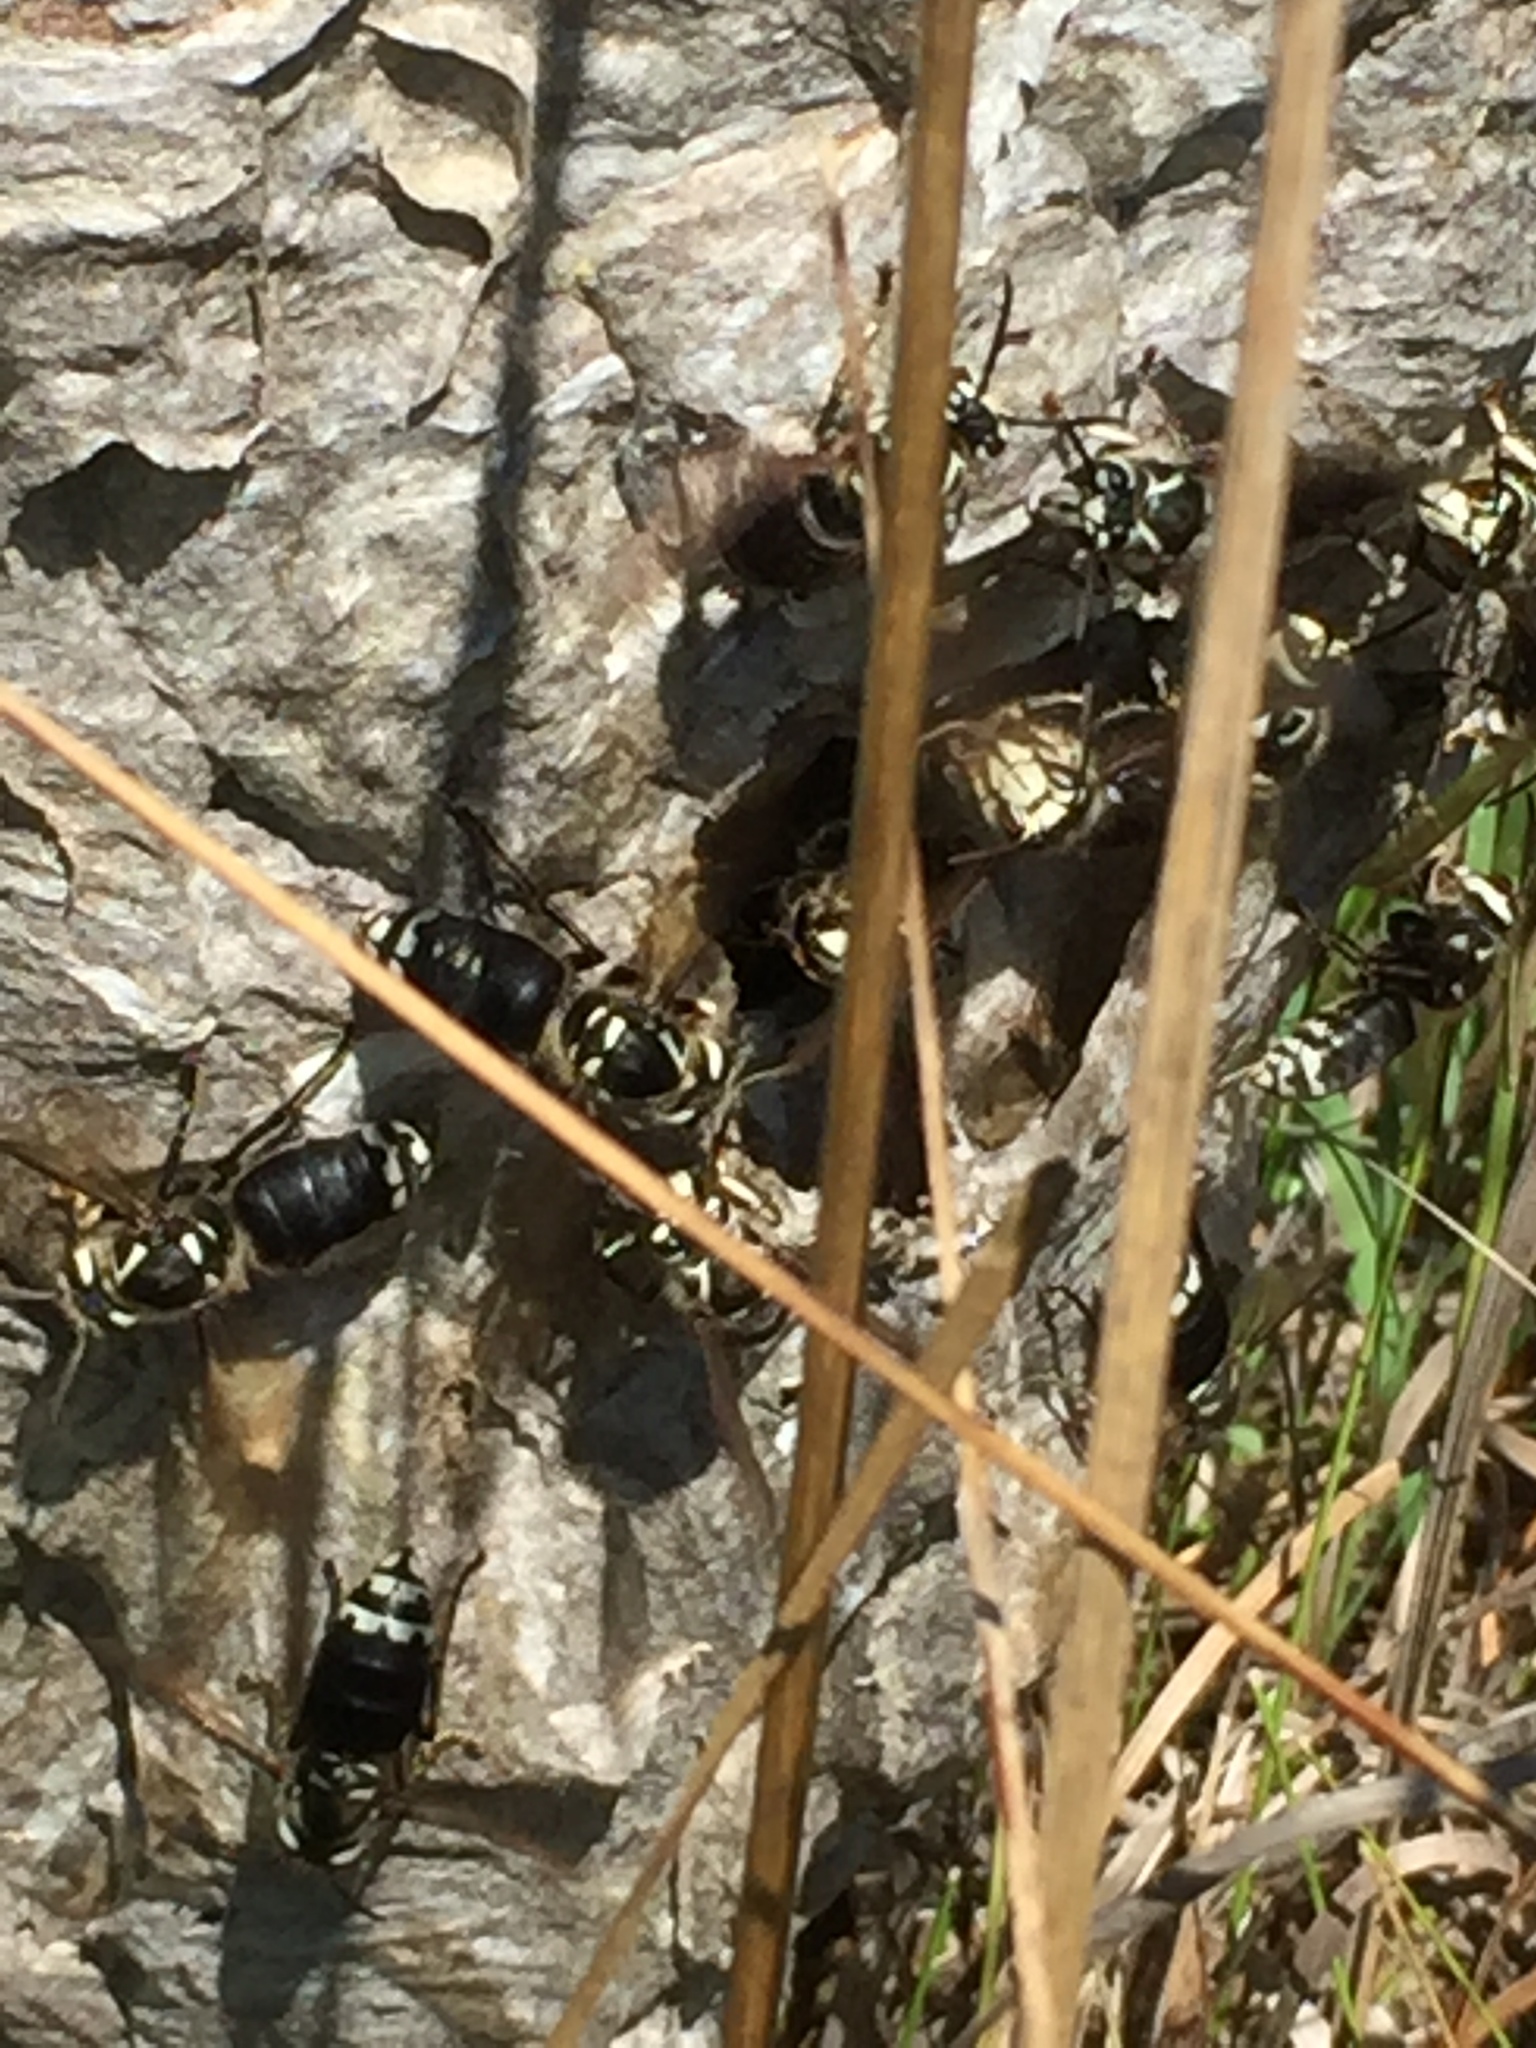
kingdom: Animalia
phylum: Arthropoda
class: Insecta
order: Hymenoptera
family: Vespidae
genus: Dolichovespula
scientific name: Dolichovespula maculata
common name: Bald-faced hornet
